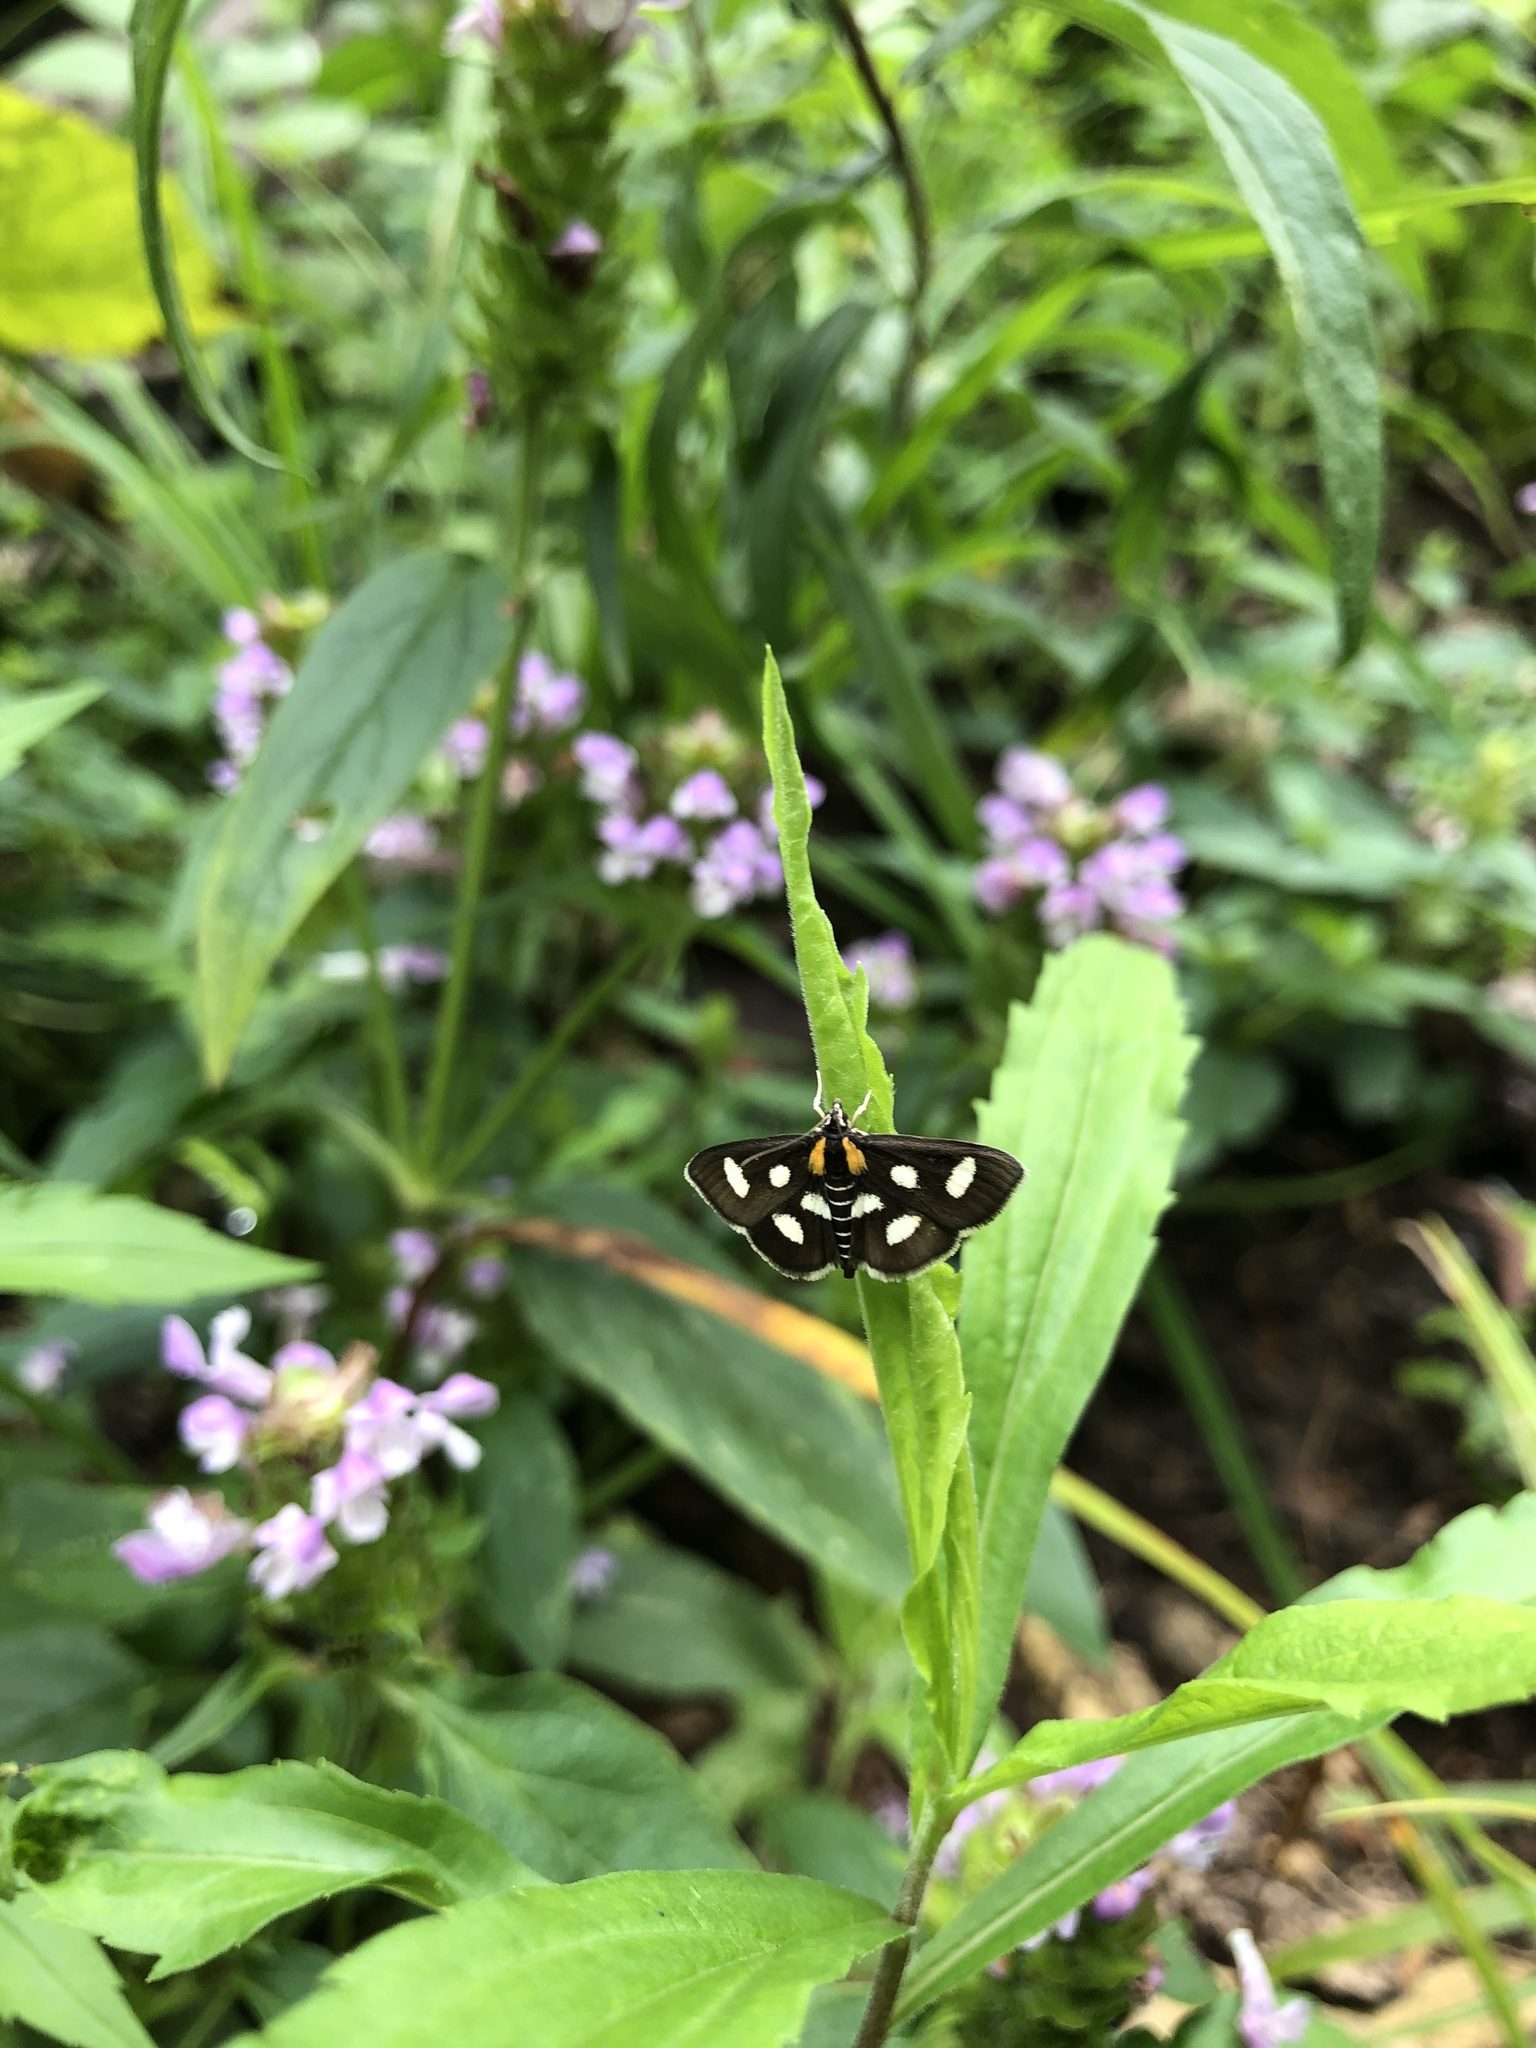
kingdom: Animalia
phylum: Arthropoda
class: Insecta
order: Lepidoptera
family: Crambidae
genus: Anania
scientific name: Anania funebris
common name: White-spotted sable moth
